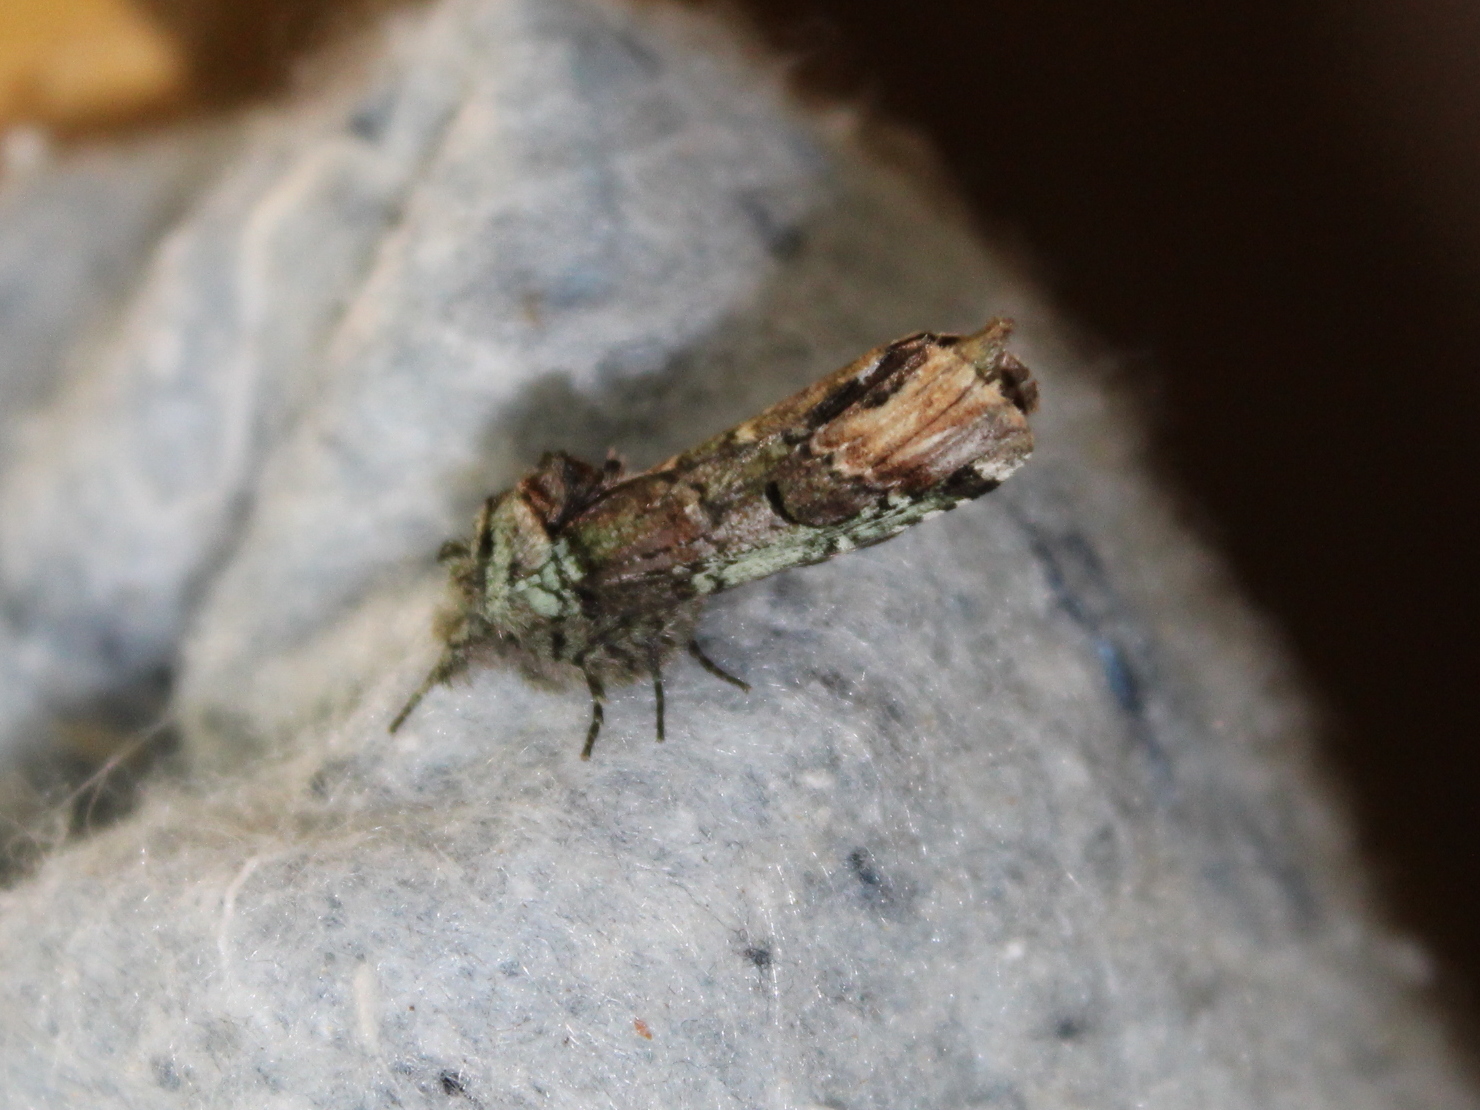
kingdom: Animalia
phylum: Arthropoda
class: Insecta
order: Lepidoptera
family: Notodontidae
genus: Schizura
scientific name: Schizura
